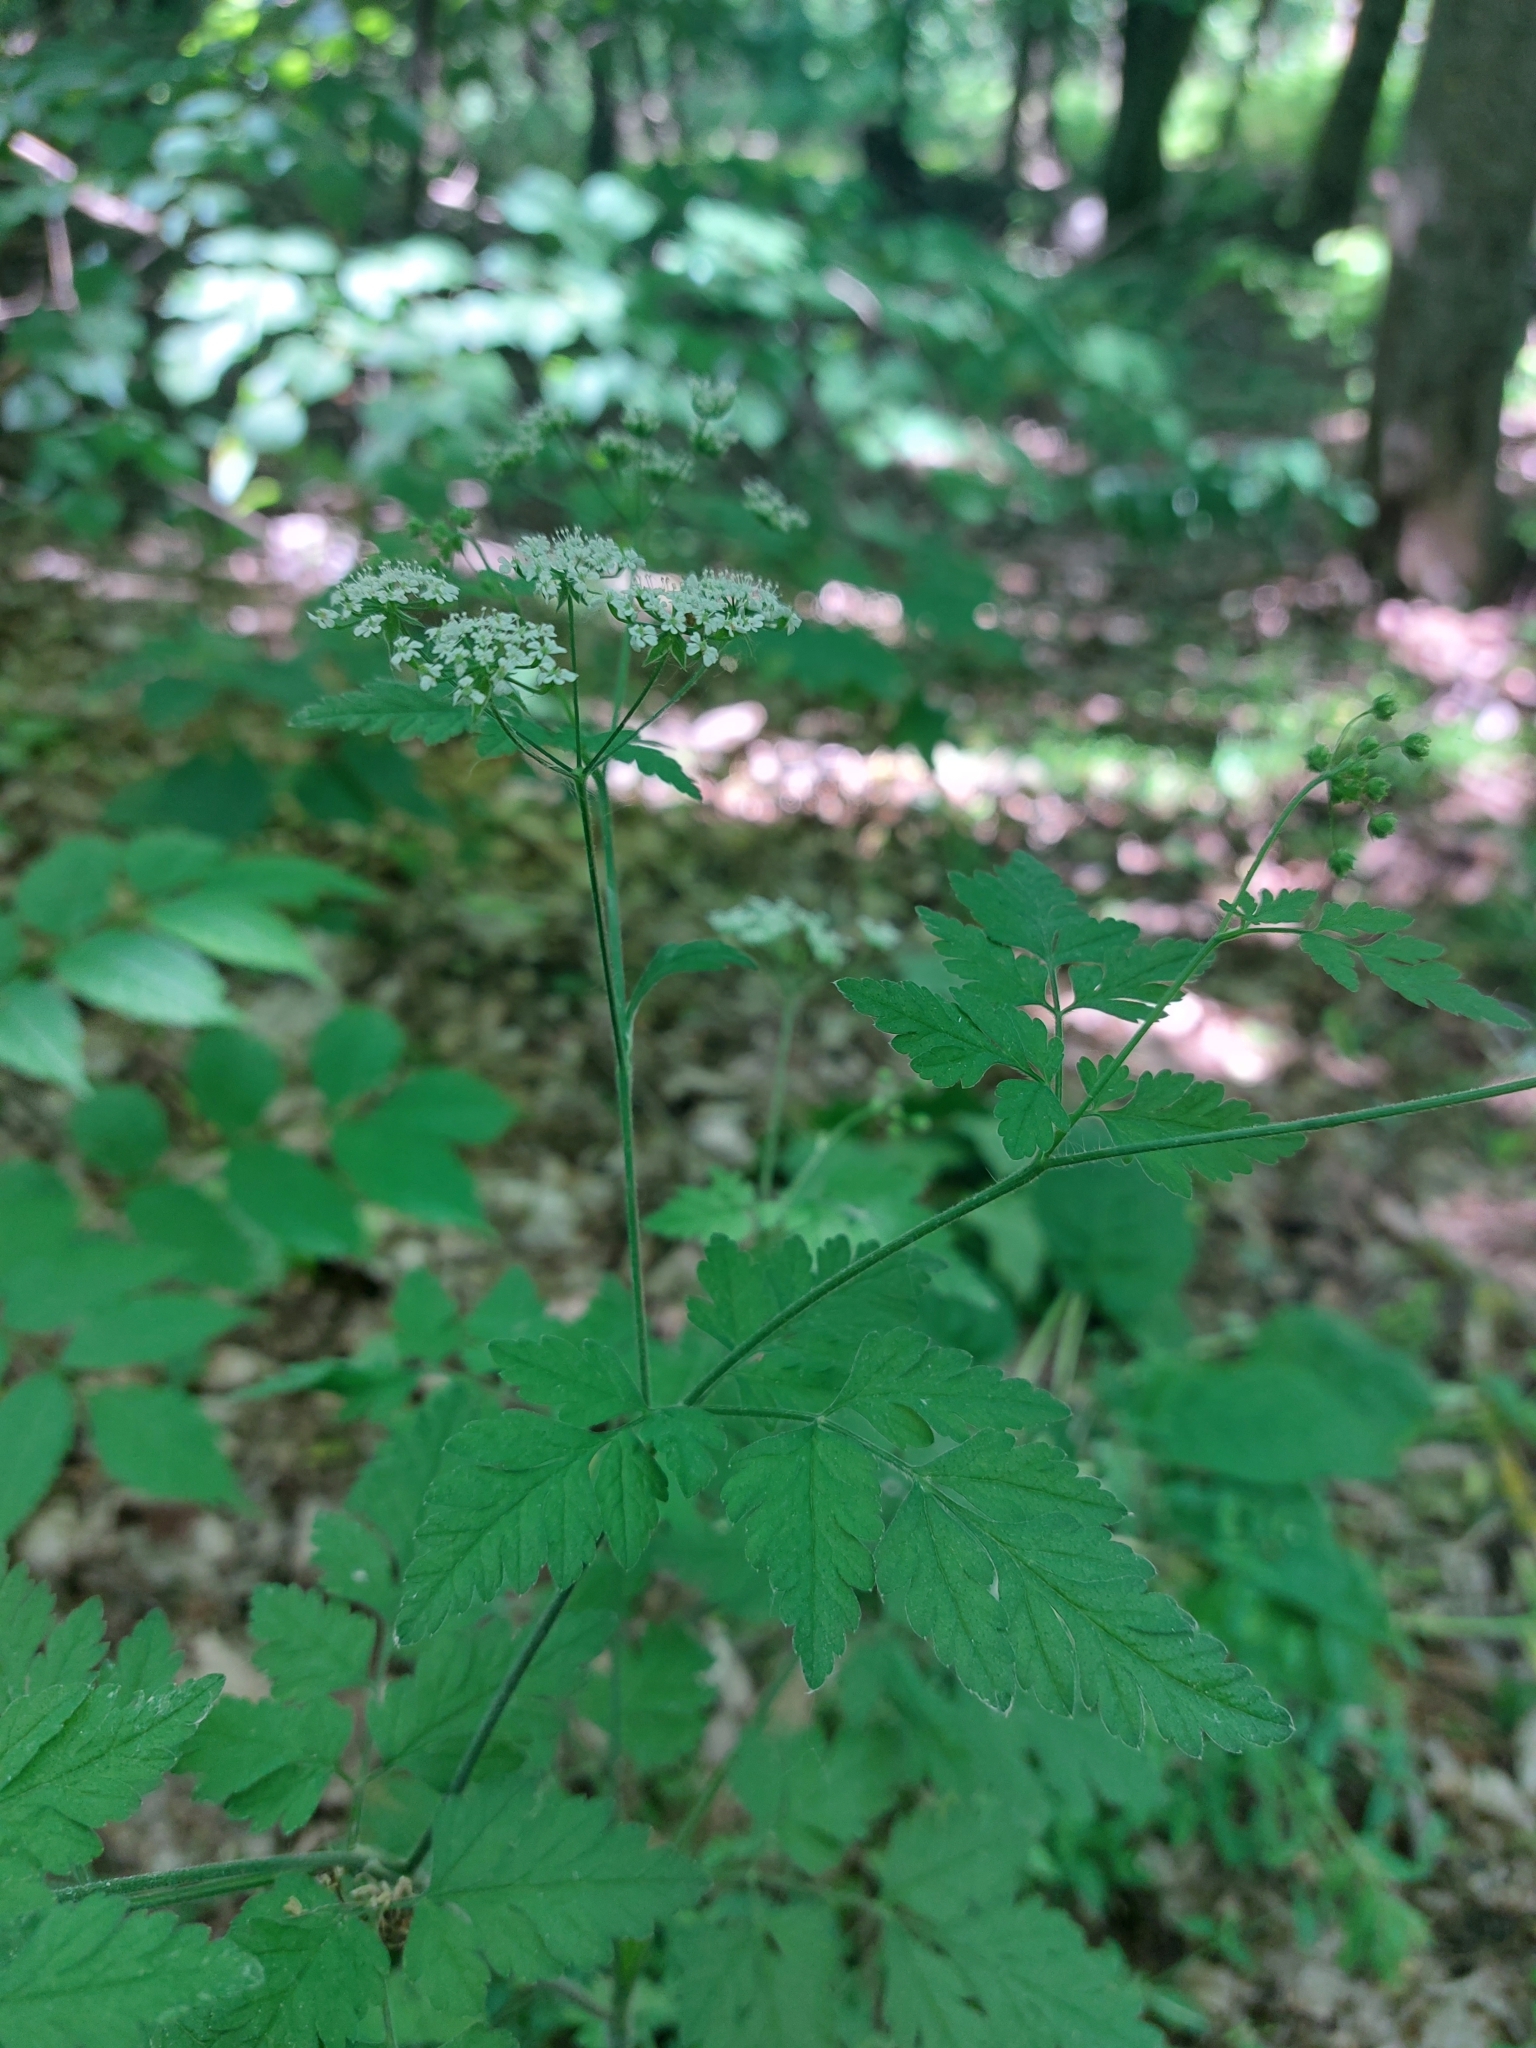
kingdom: Plantae
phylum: Tracheophyta
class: Magnoliopsida
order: Apiales
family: Apiaceae
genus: Chaerophyllum
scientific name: Chaerophyllum temulum
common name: Rough chervil
